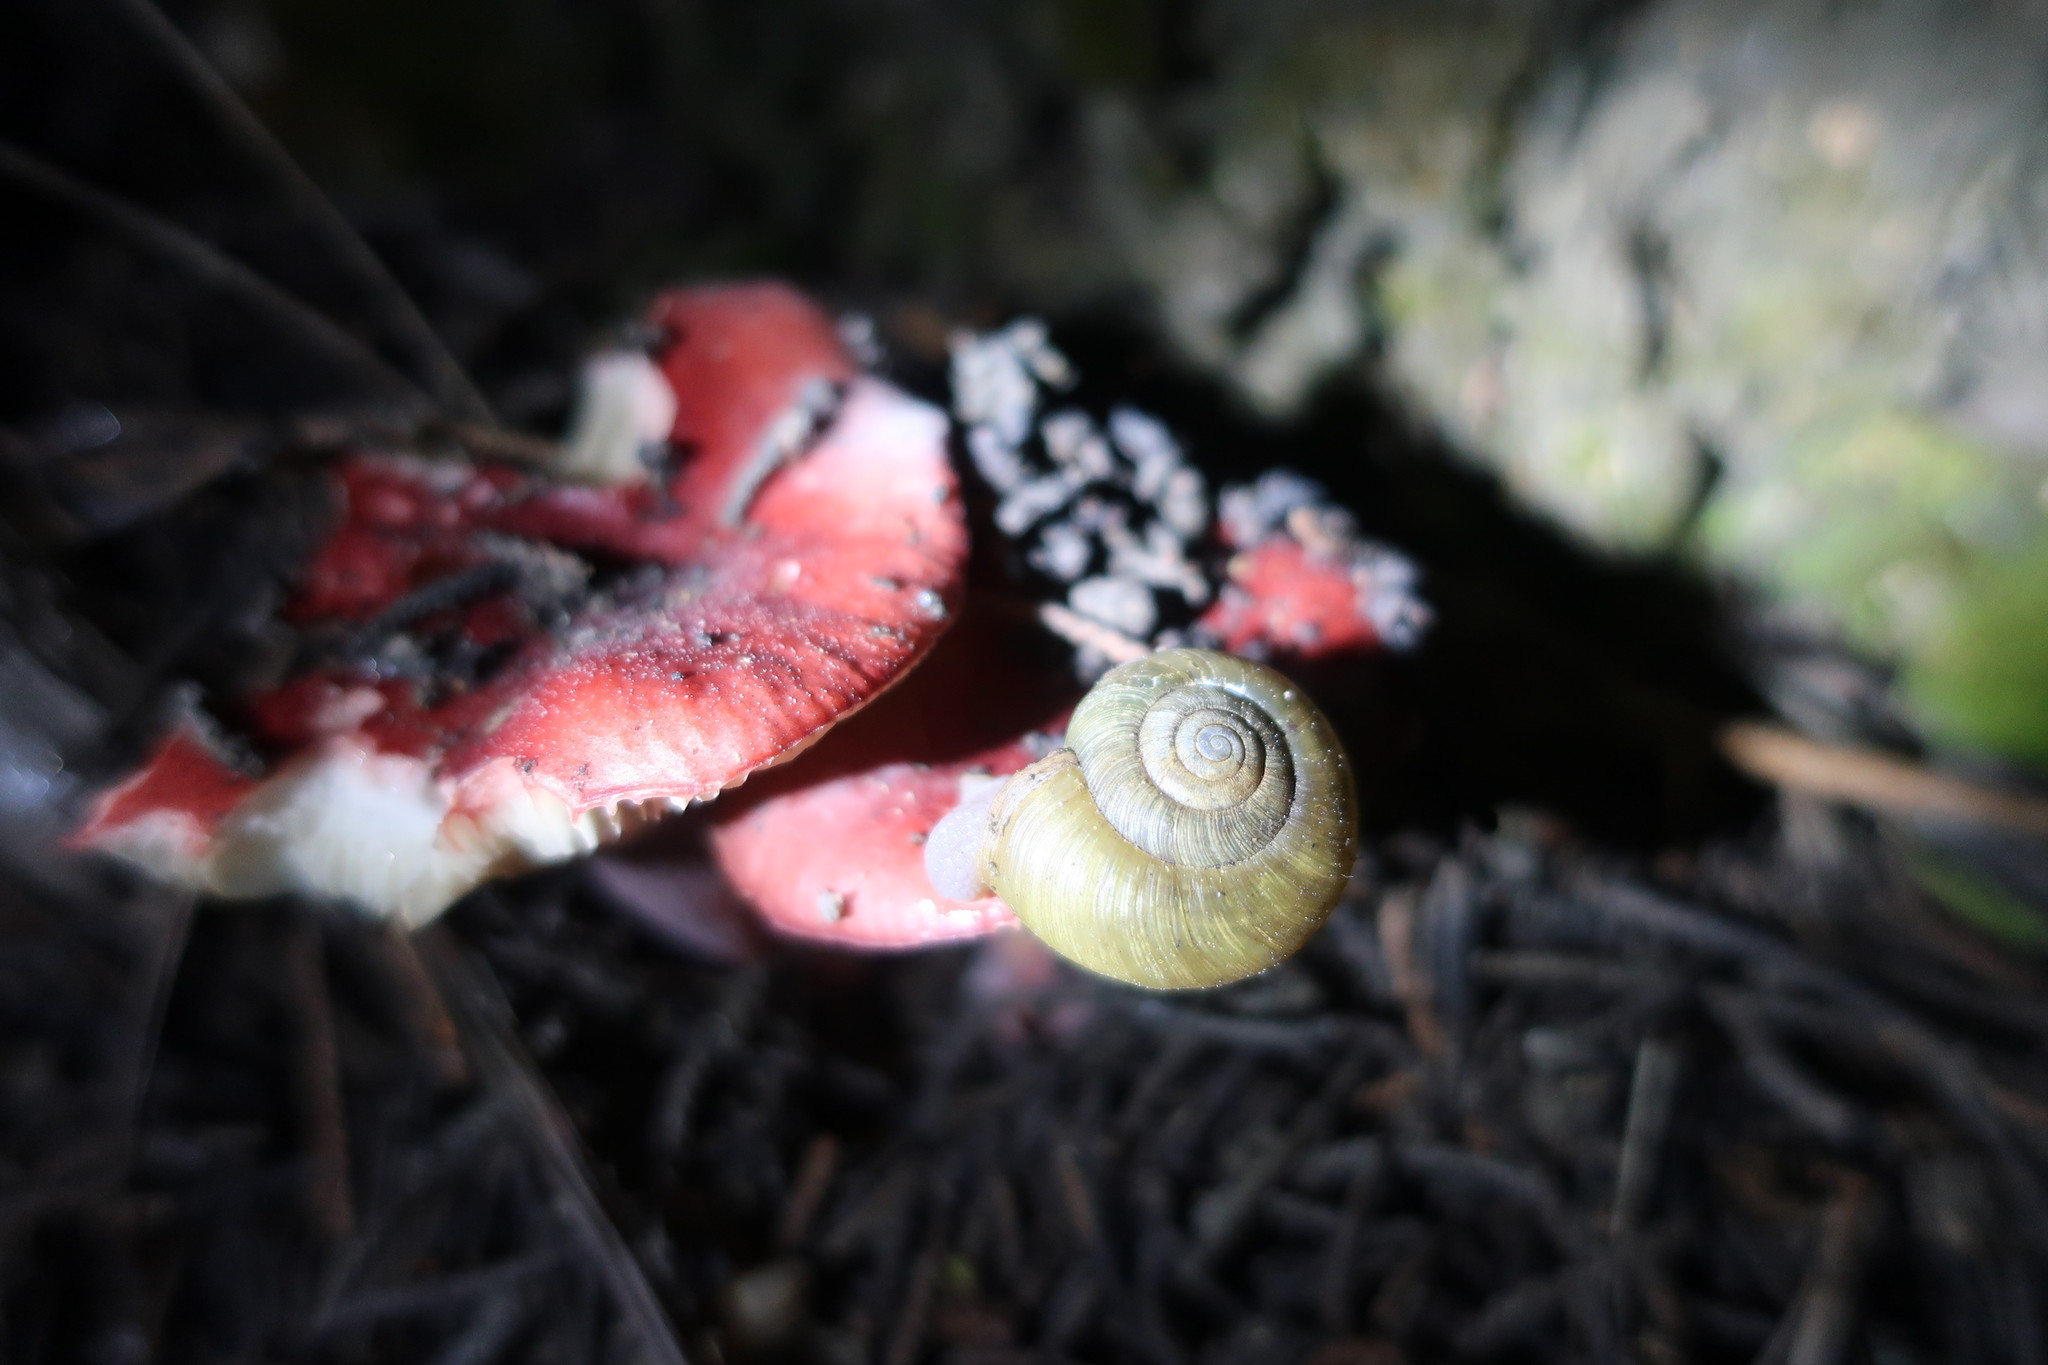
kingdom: Animalia
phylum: Mollusca
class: Gastropoda
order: Stylommatophora
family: Haplotrematidae
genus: Haplotrema
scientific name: Haplotrema minimum
